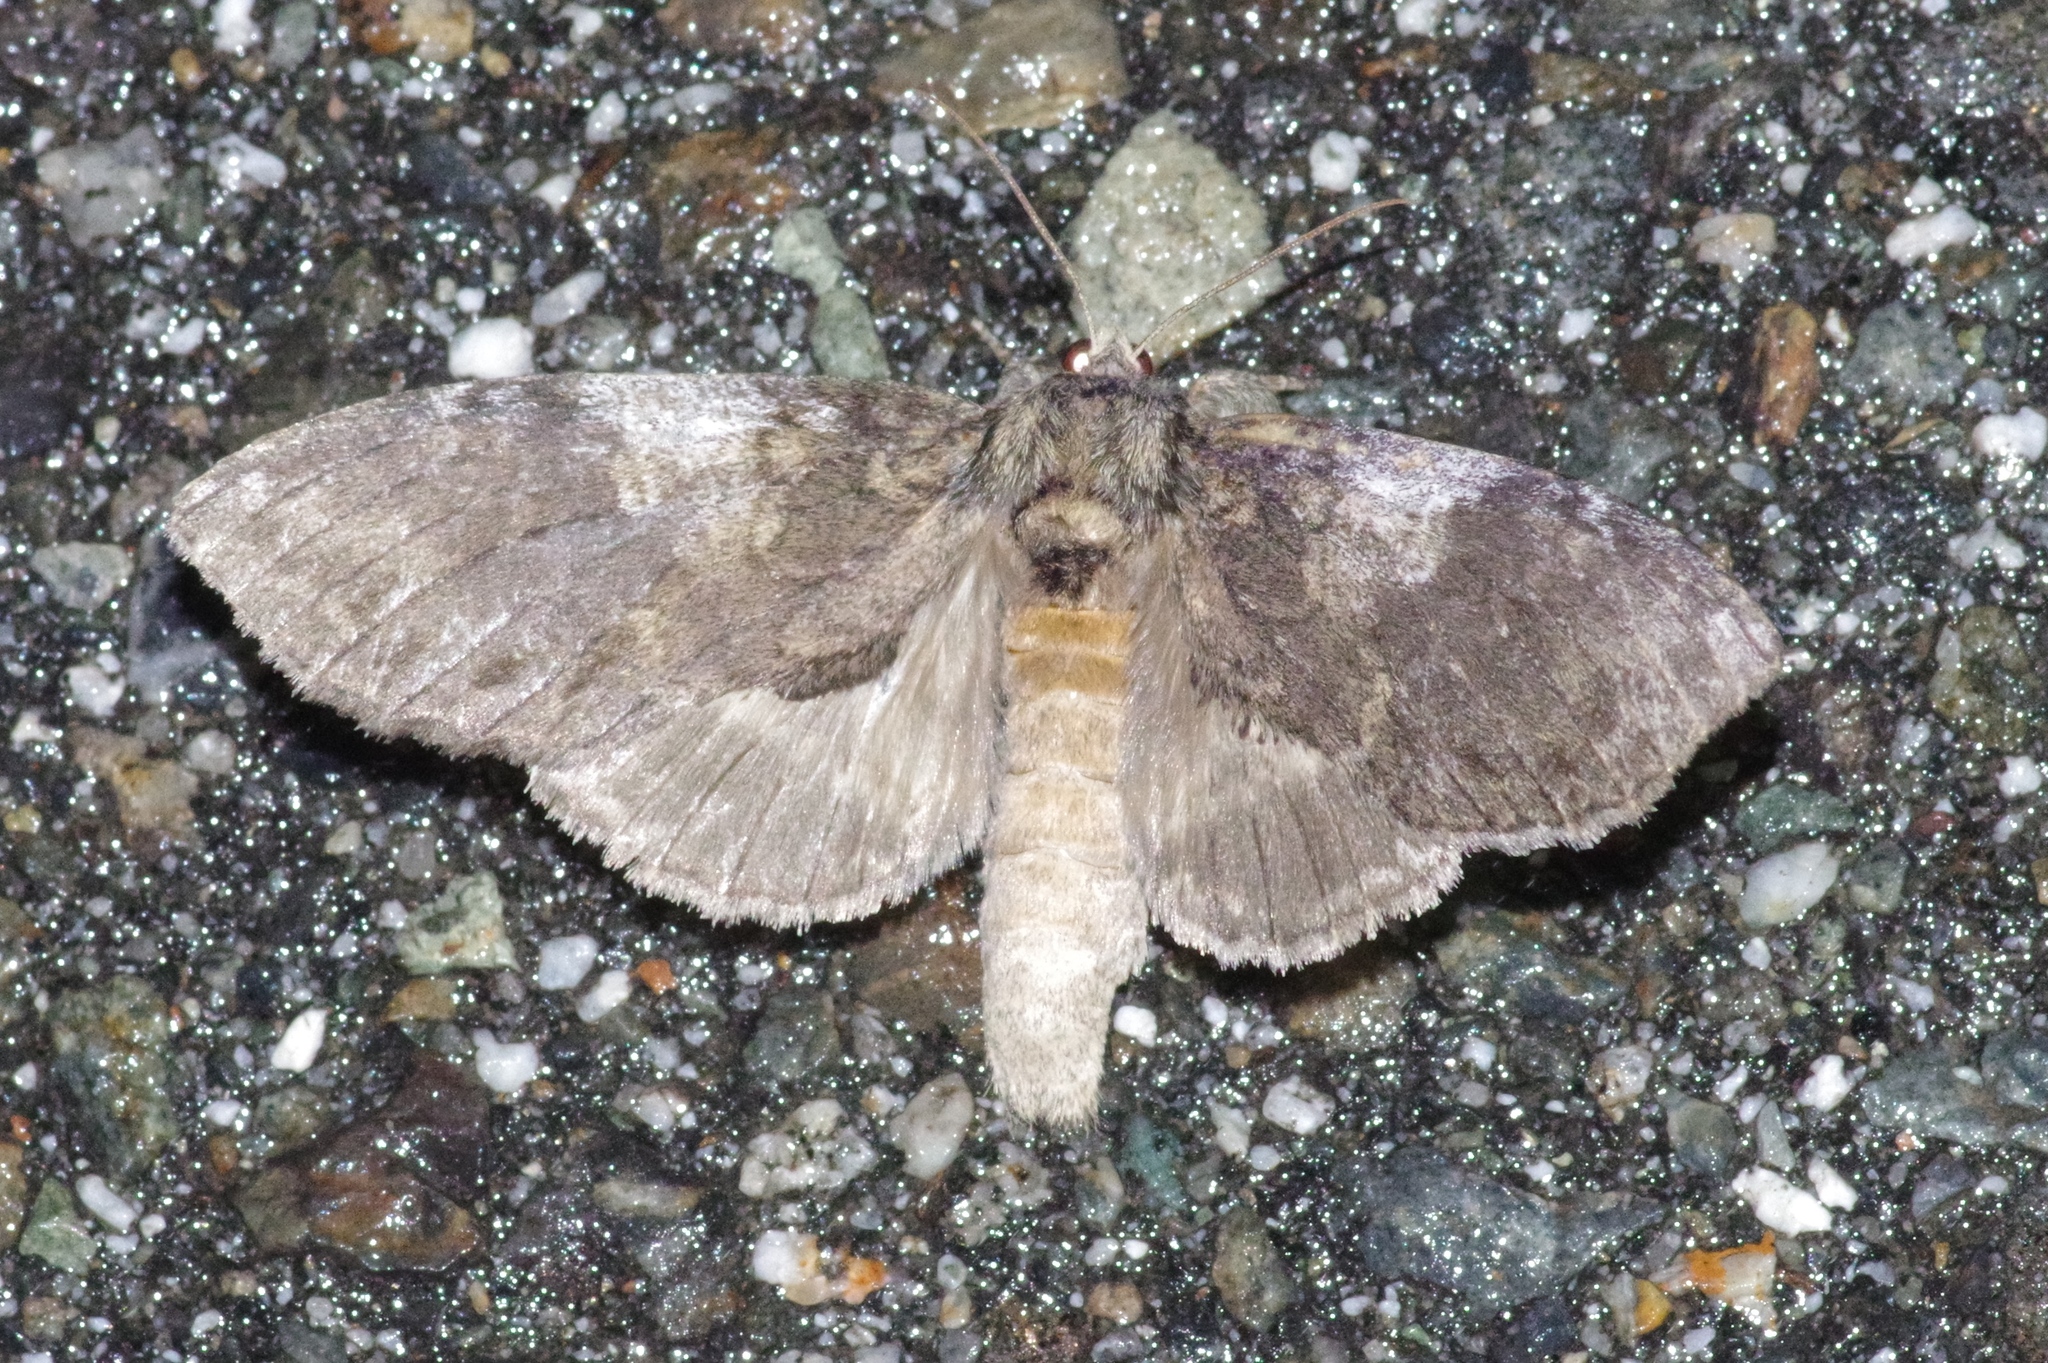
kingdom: Animalia
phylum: Arthropoda
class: Insecta
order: Lepidoptera
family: Notodontidae
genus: Peridea
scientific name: Peridea gigantea
